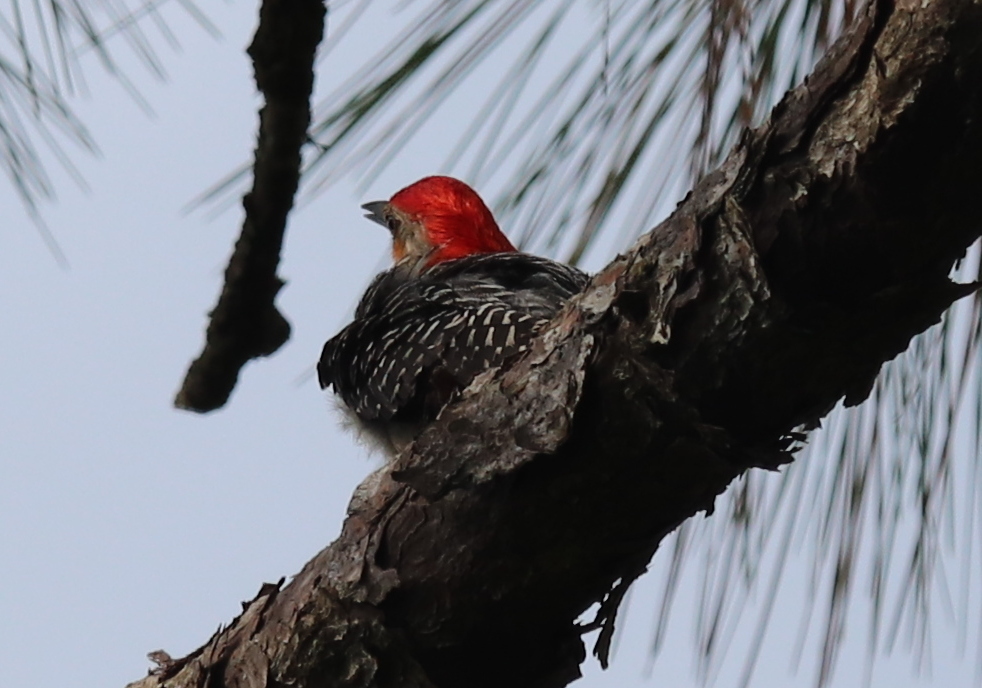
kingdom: Animalia
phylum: Chordata
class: Aves
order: Piciformes
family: Picidae
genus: Melanerpes
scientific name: Melanerpes carolinus
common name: Red-bellied woodpecker
